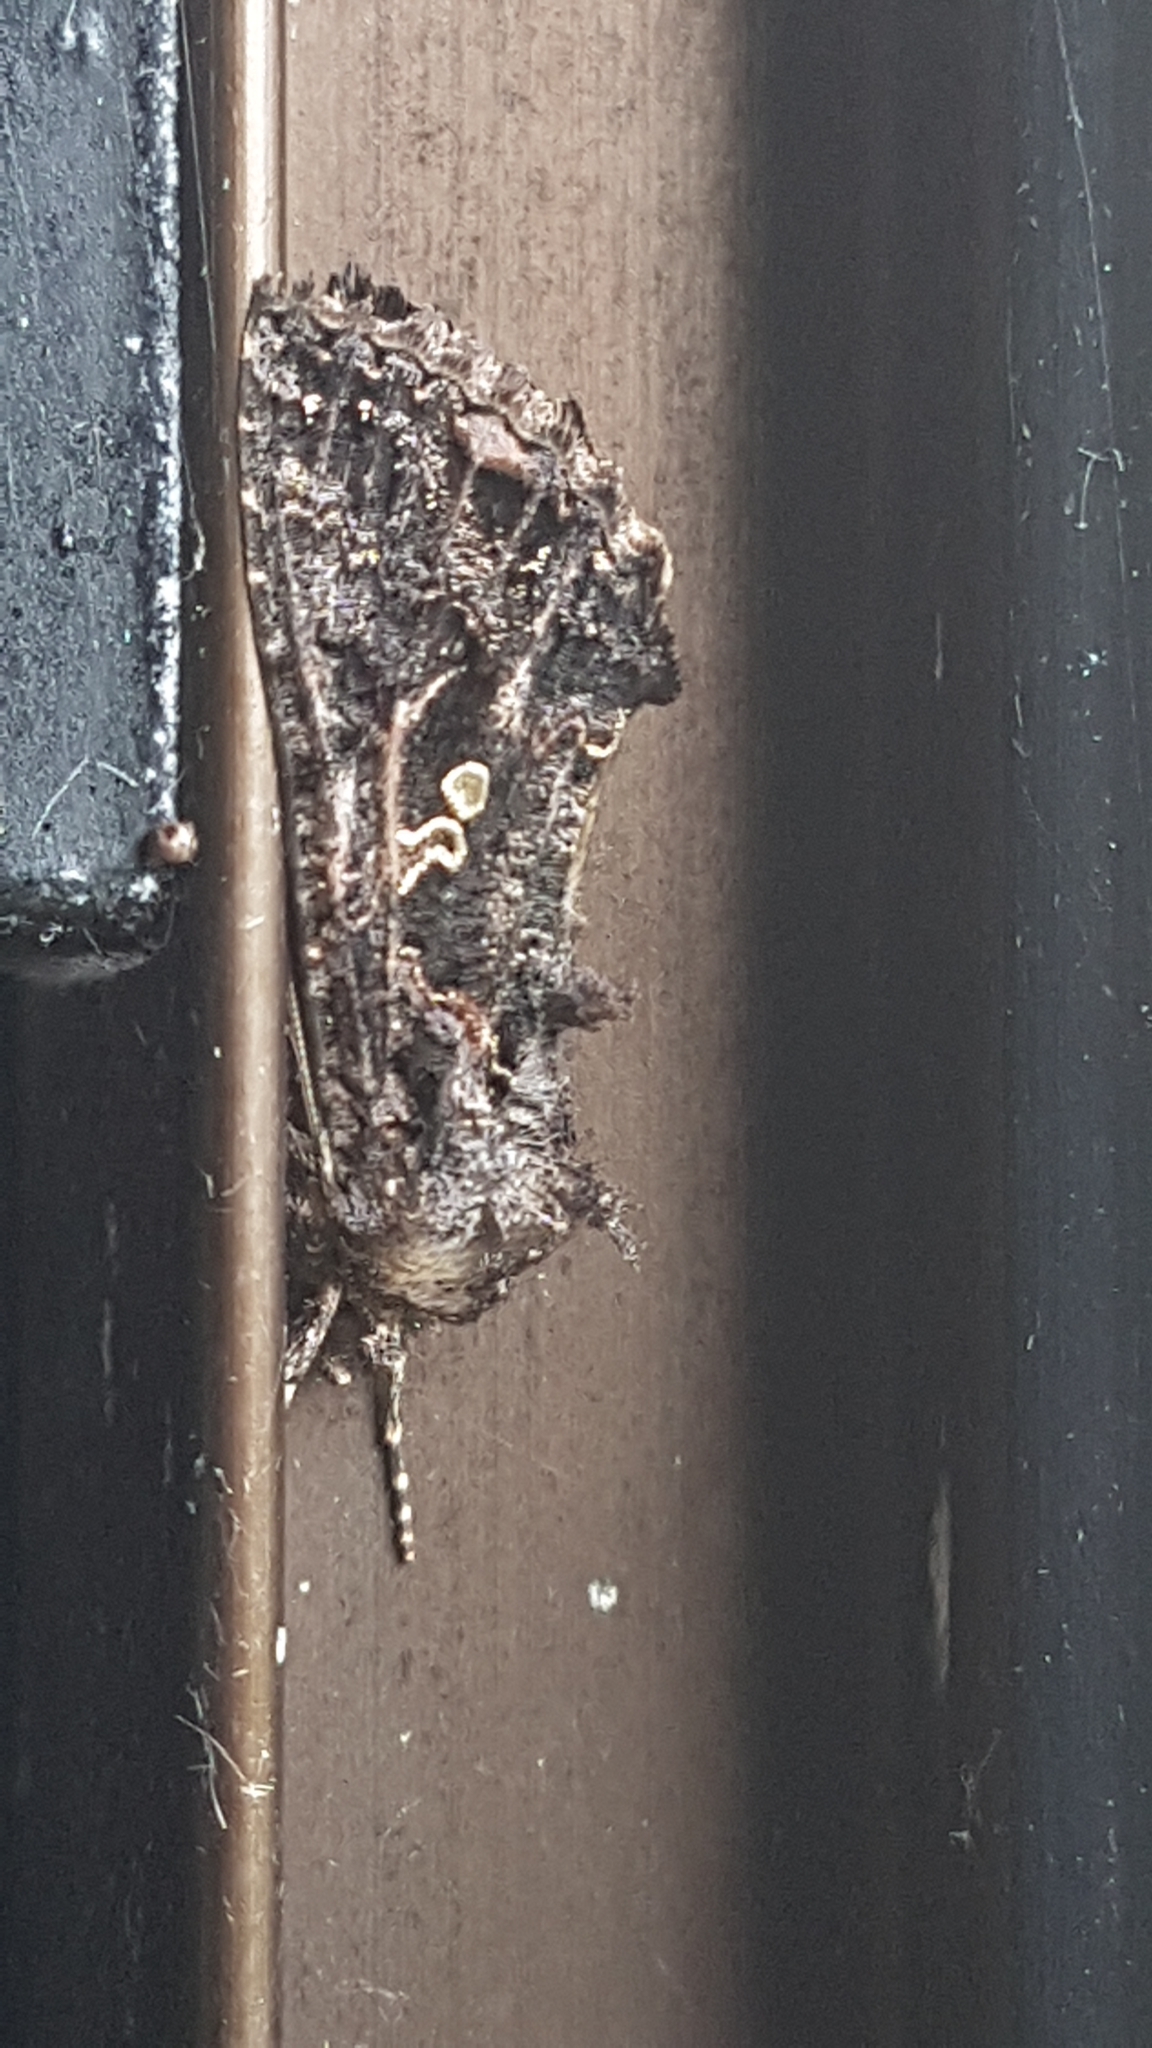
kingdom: Animalia
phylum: Arthropoda
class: Insecta
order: Lepidoptera
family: Noctuidae
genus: Ctenoplusia
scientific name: Ctenoplusia limbirena
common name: Scar bank gem
